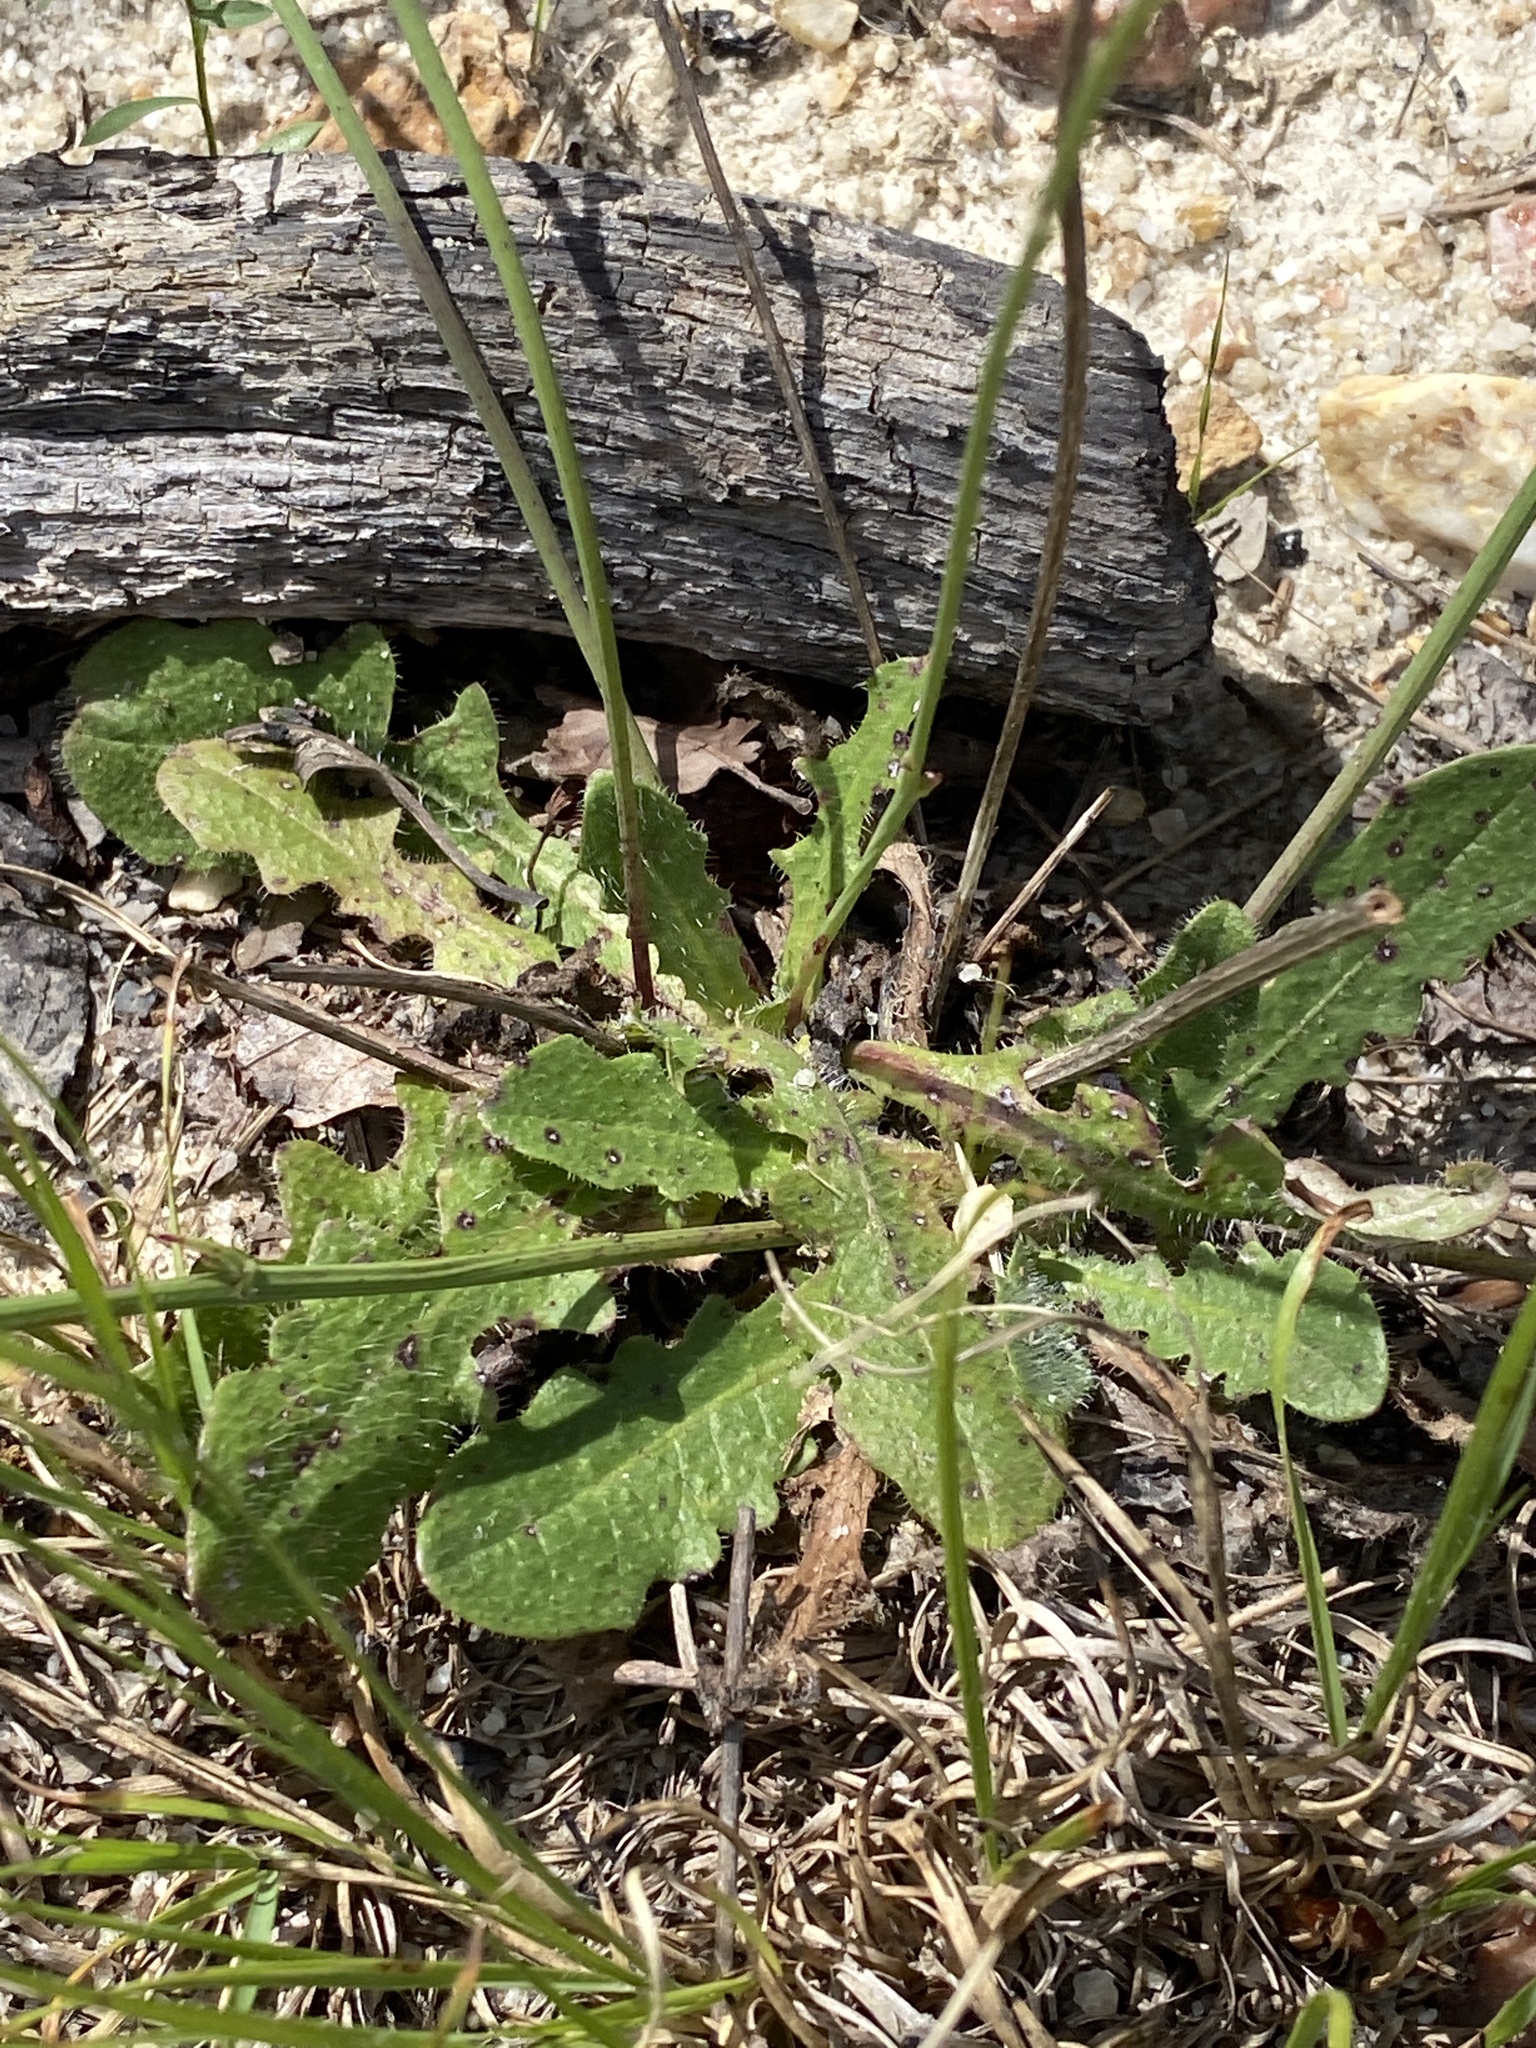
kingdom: Plantae
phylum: Tracheophyta
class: Magnoliopsida
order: Asterales
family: Asteraceae
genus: Hypochaeris
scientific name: Hypochaeris radicata
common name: Flatweed
